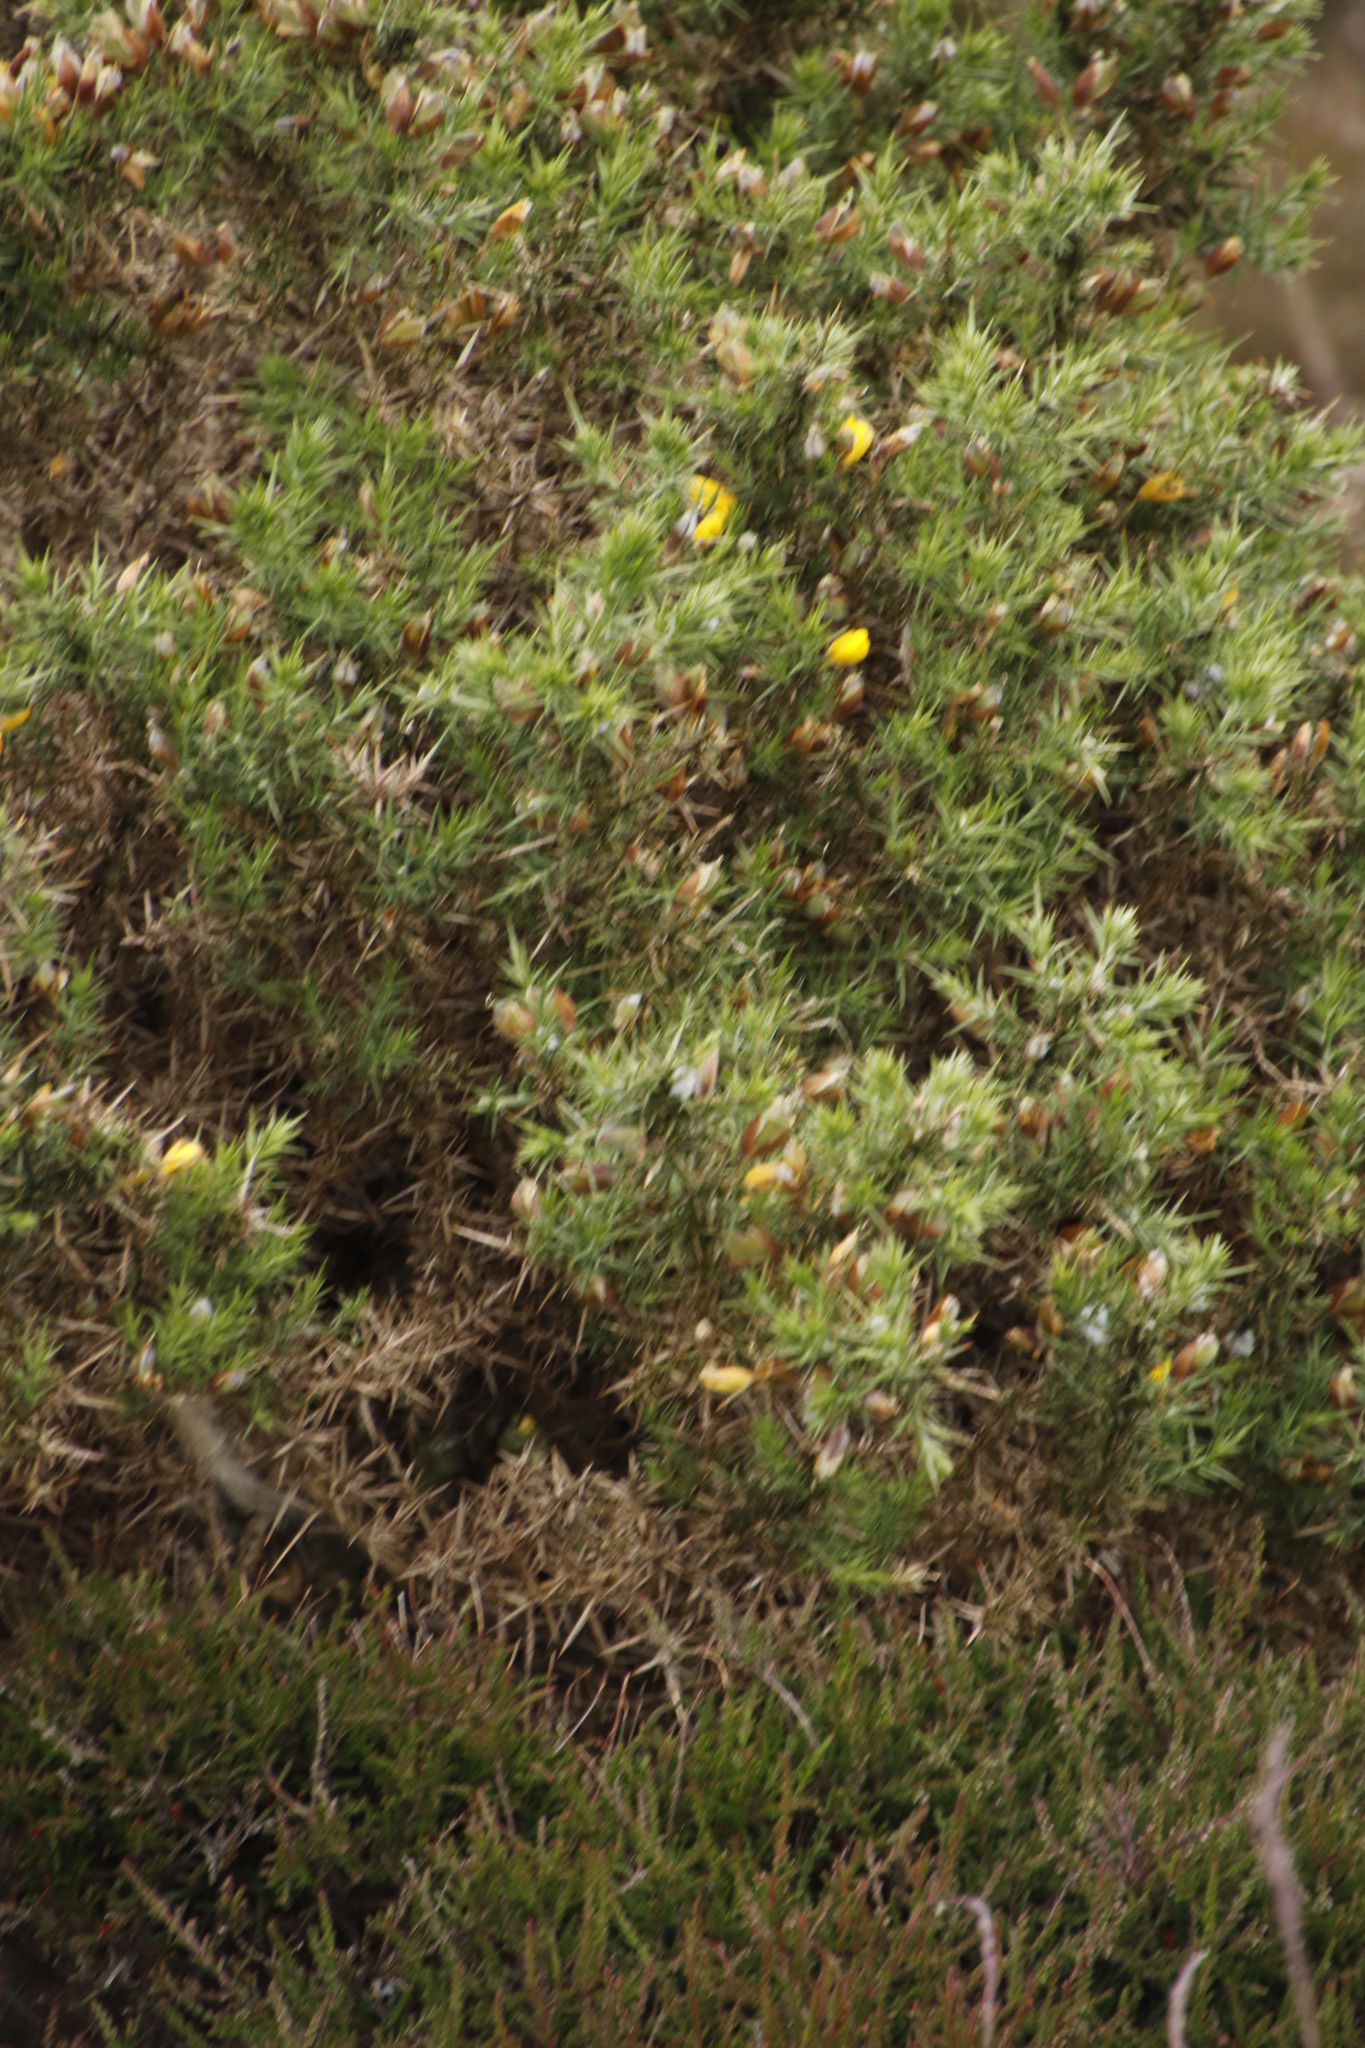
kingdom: Plantae
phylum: Tracheophyta
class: Magnoliopsida
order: Fabales
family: Fabaceae
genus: Ulex
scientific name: Ulex europaeus
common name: Common gorse
